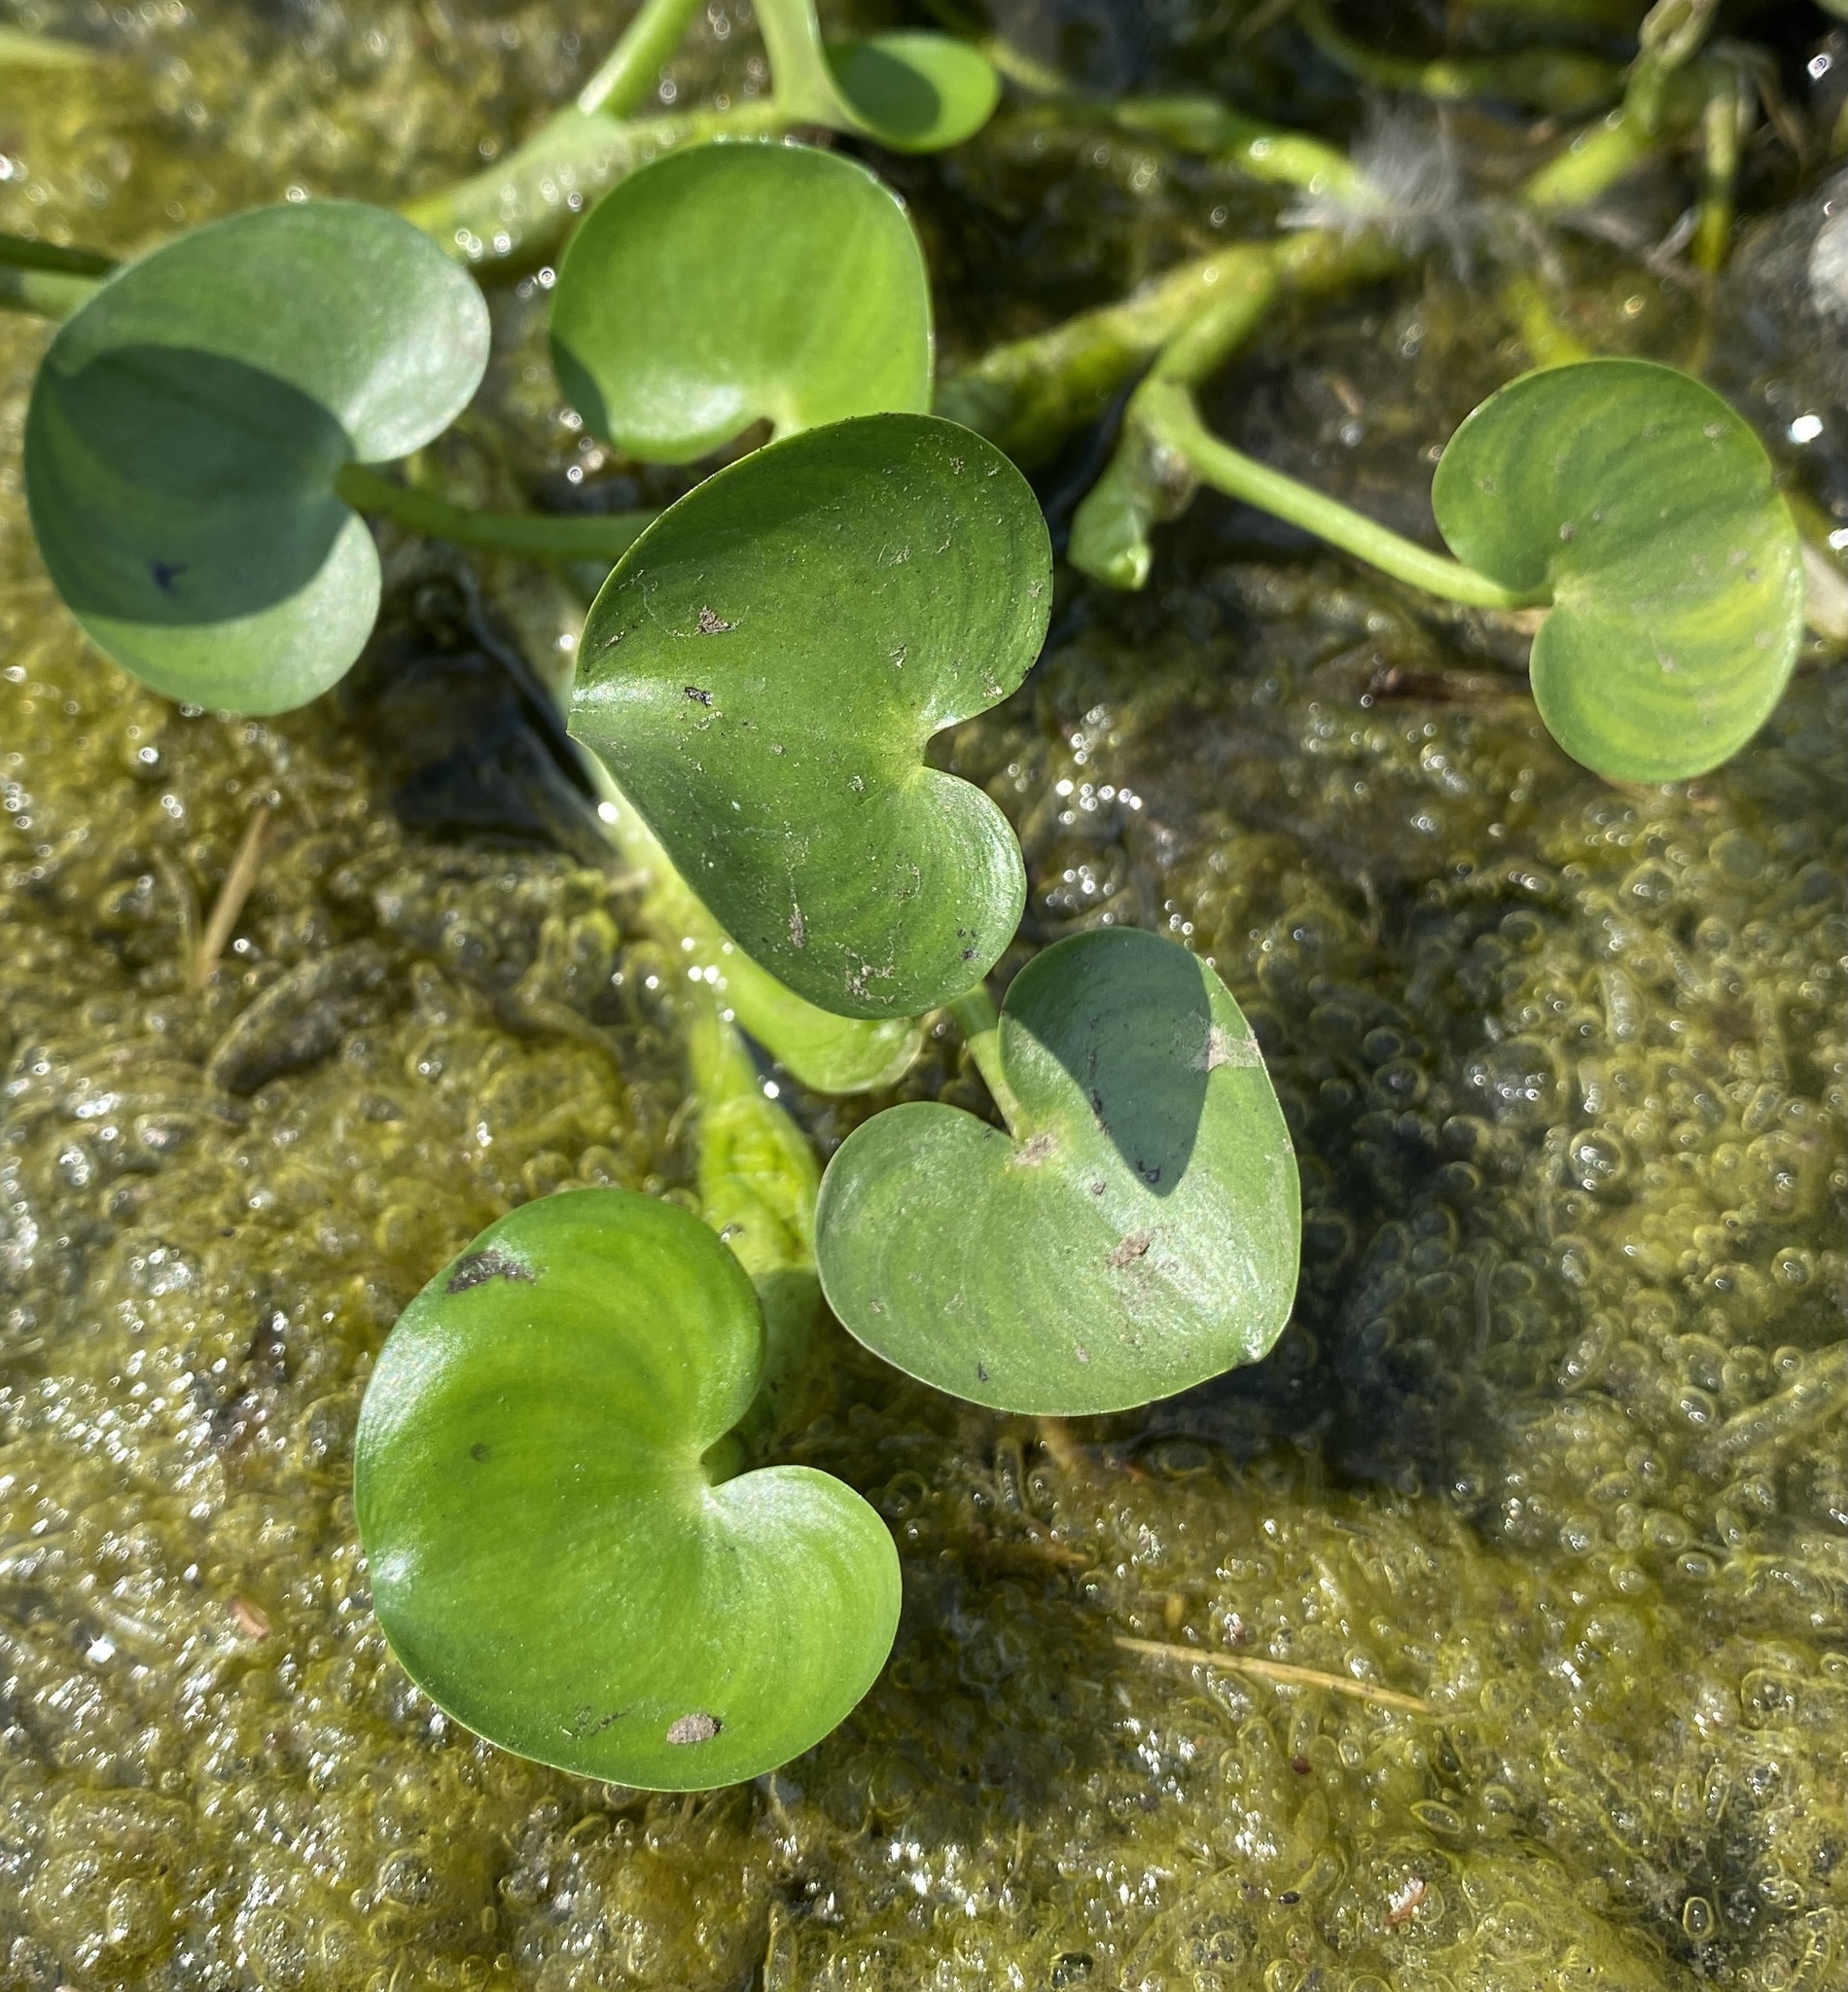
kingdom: Plantae
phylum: Tracheophyta
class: Liliopsida
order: Commelinales
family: Pontederiaceae
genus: Heteranthera
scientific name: Heteranthera reniformis
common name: Kidneyleaf mudplantain
